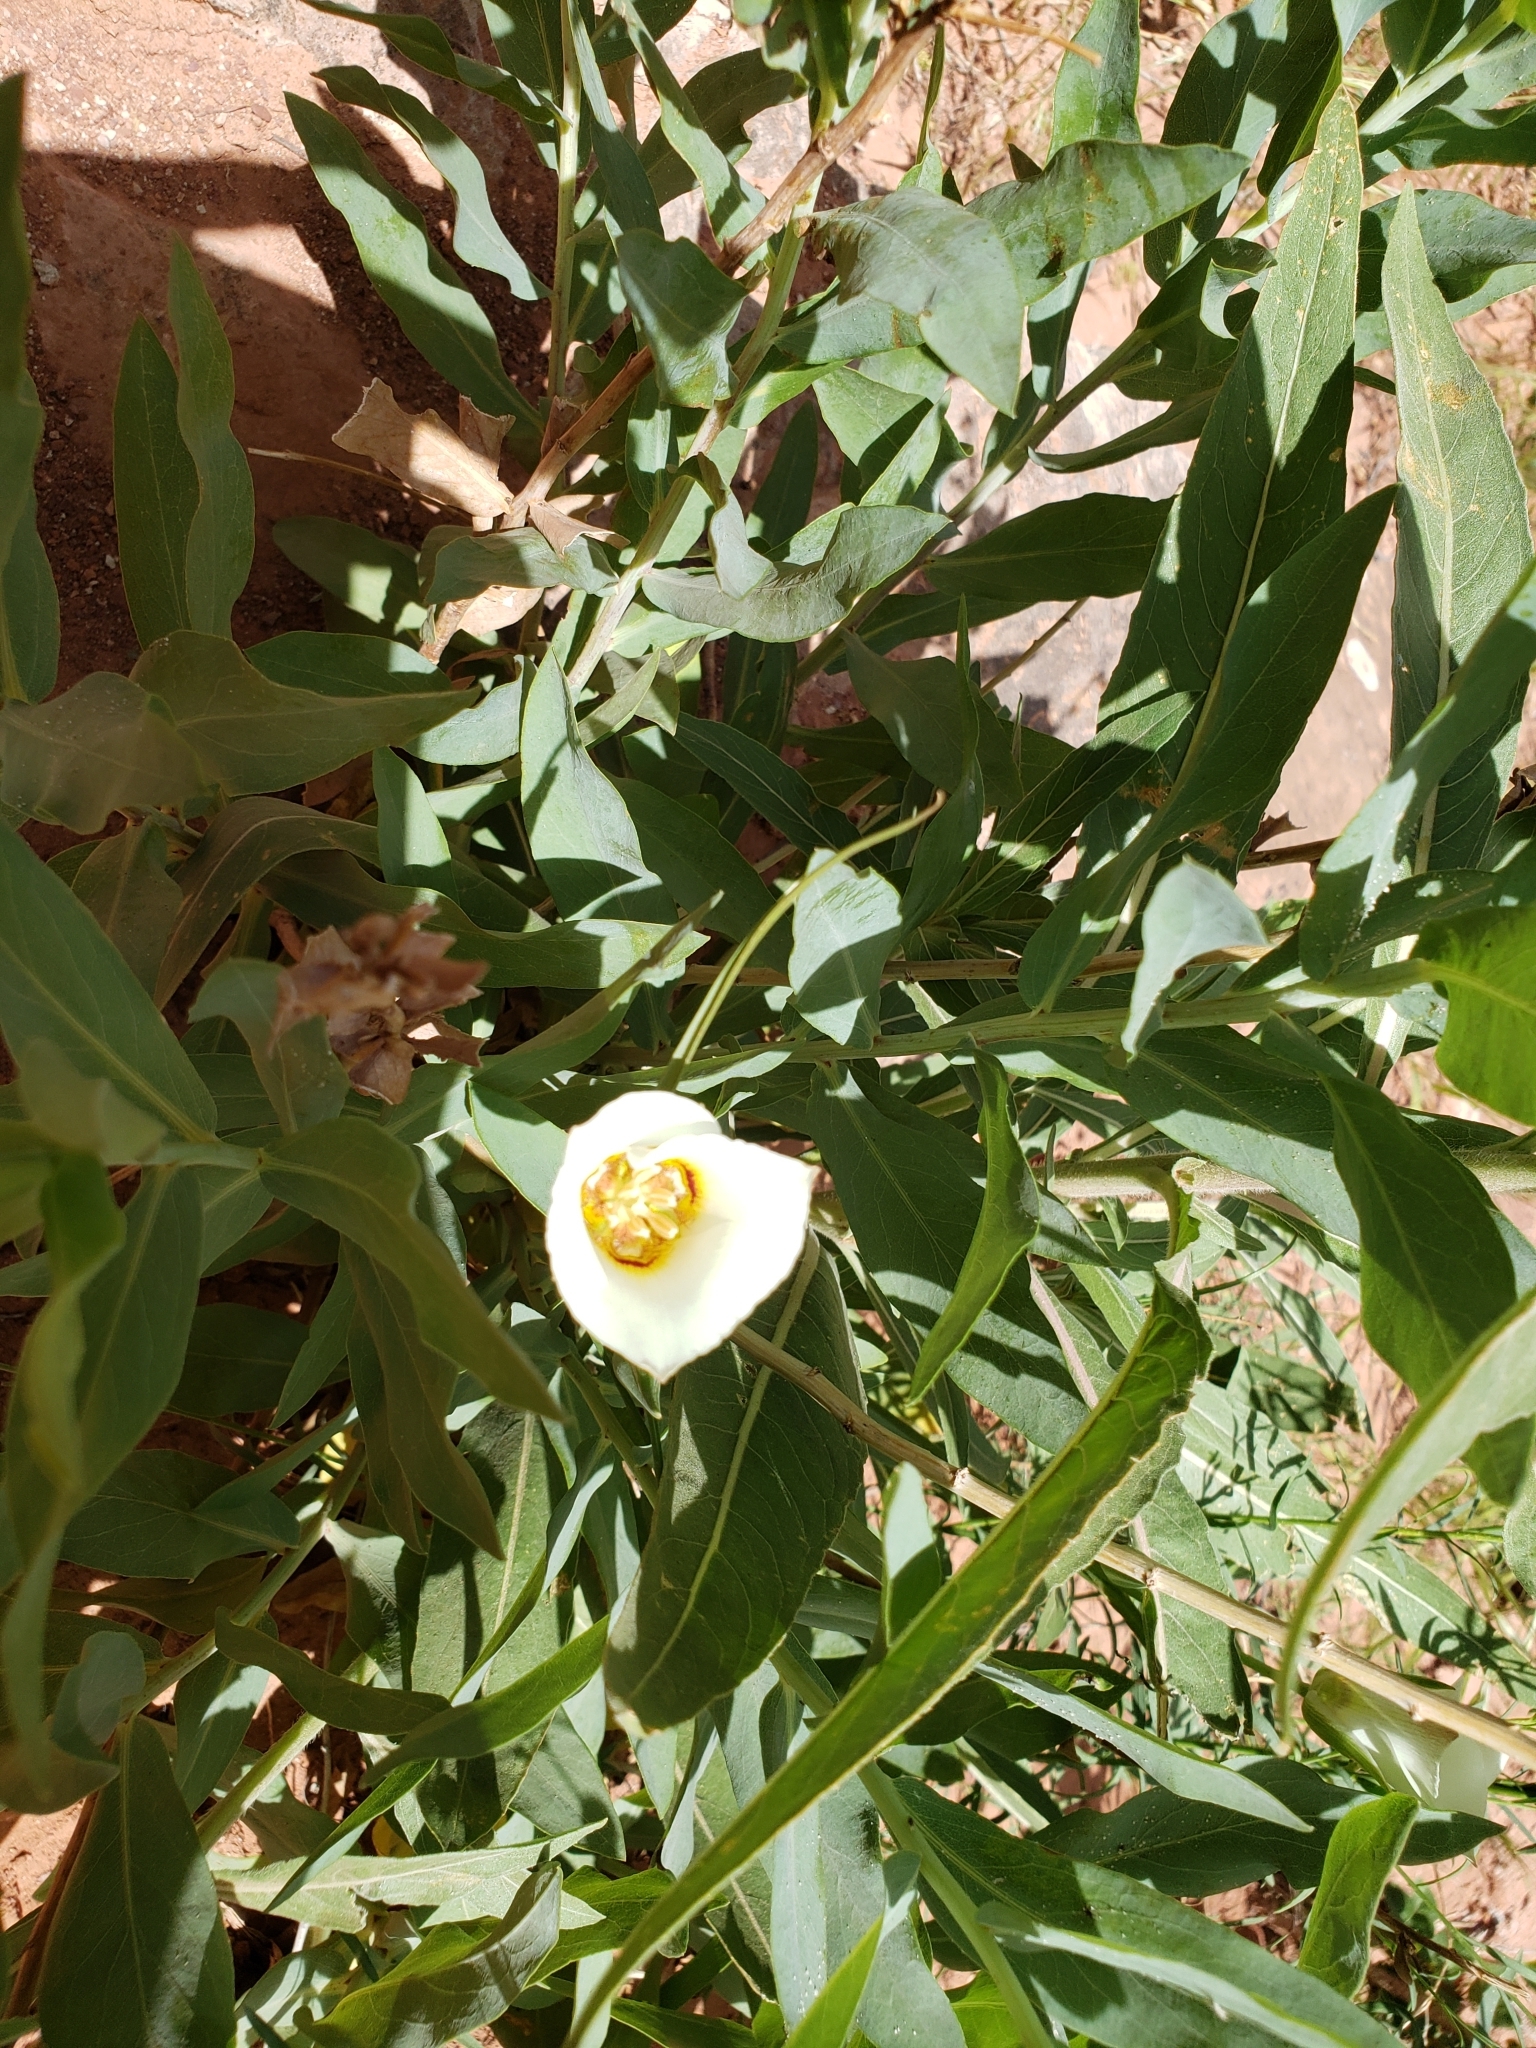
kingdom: Plantae
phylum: Tracheophyta
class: Liliopsida
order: Liliales
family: Liliaceae
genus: Calochortus
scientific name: Calochortus nuttallii
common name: Sego-lily
